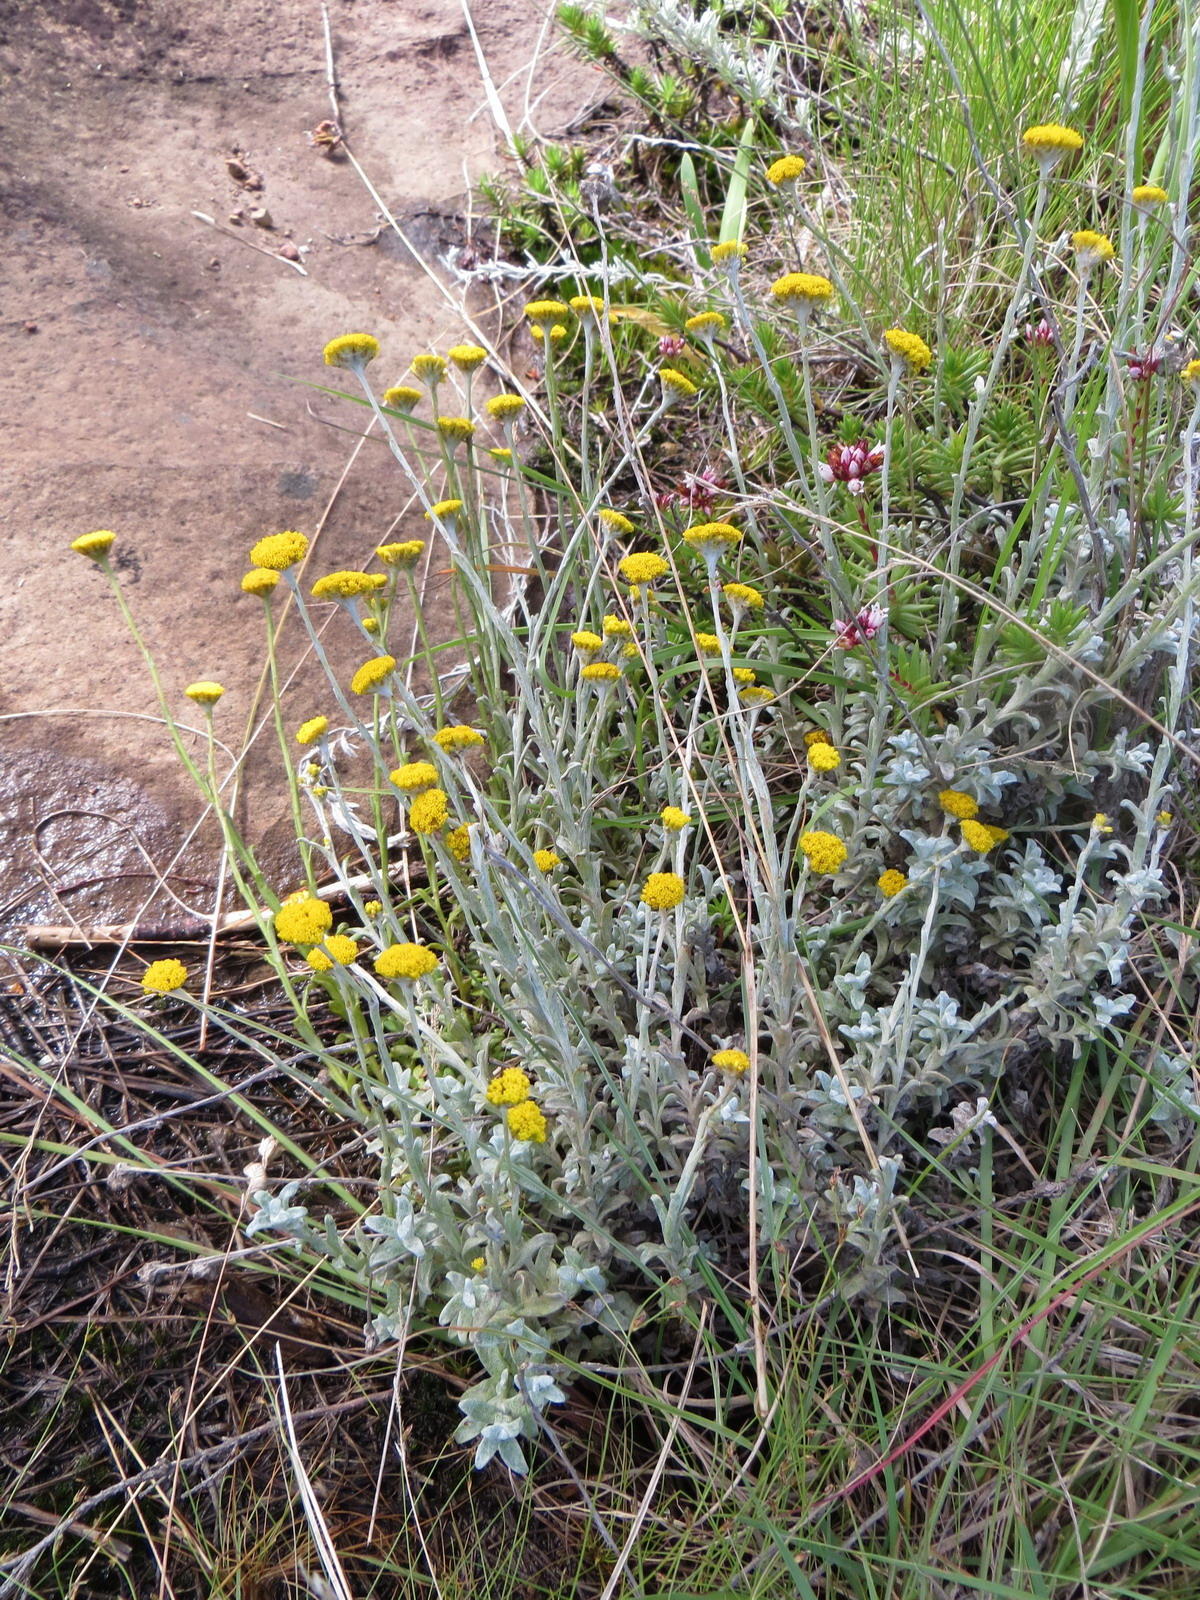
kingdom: Plantae
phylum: Tracheophyta
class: Magnoliopsida
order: Asterales
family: Asteraceae
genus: Helichrysum
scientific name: Helichrysum anomalum
